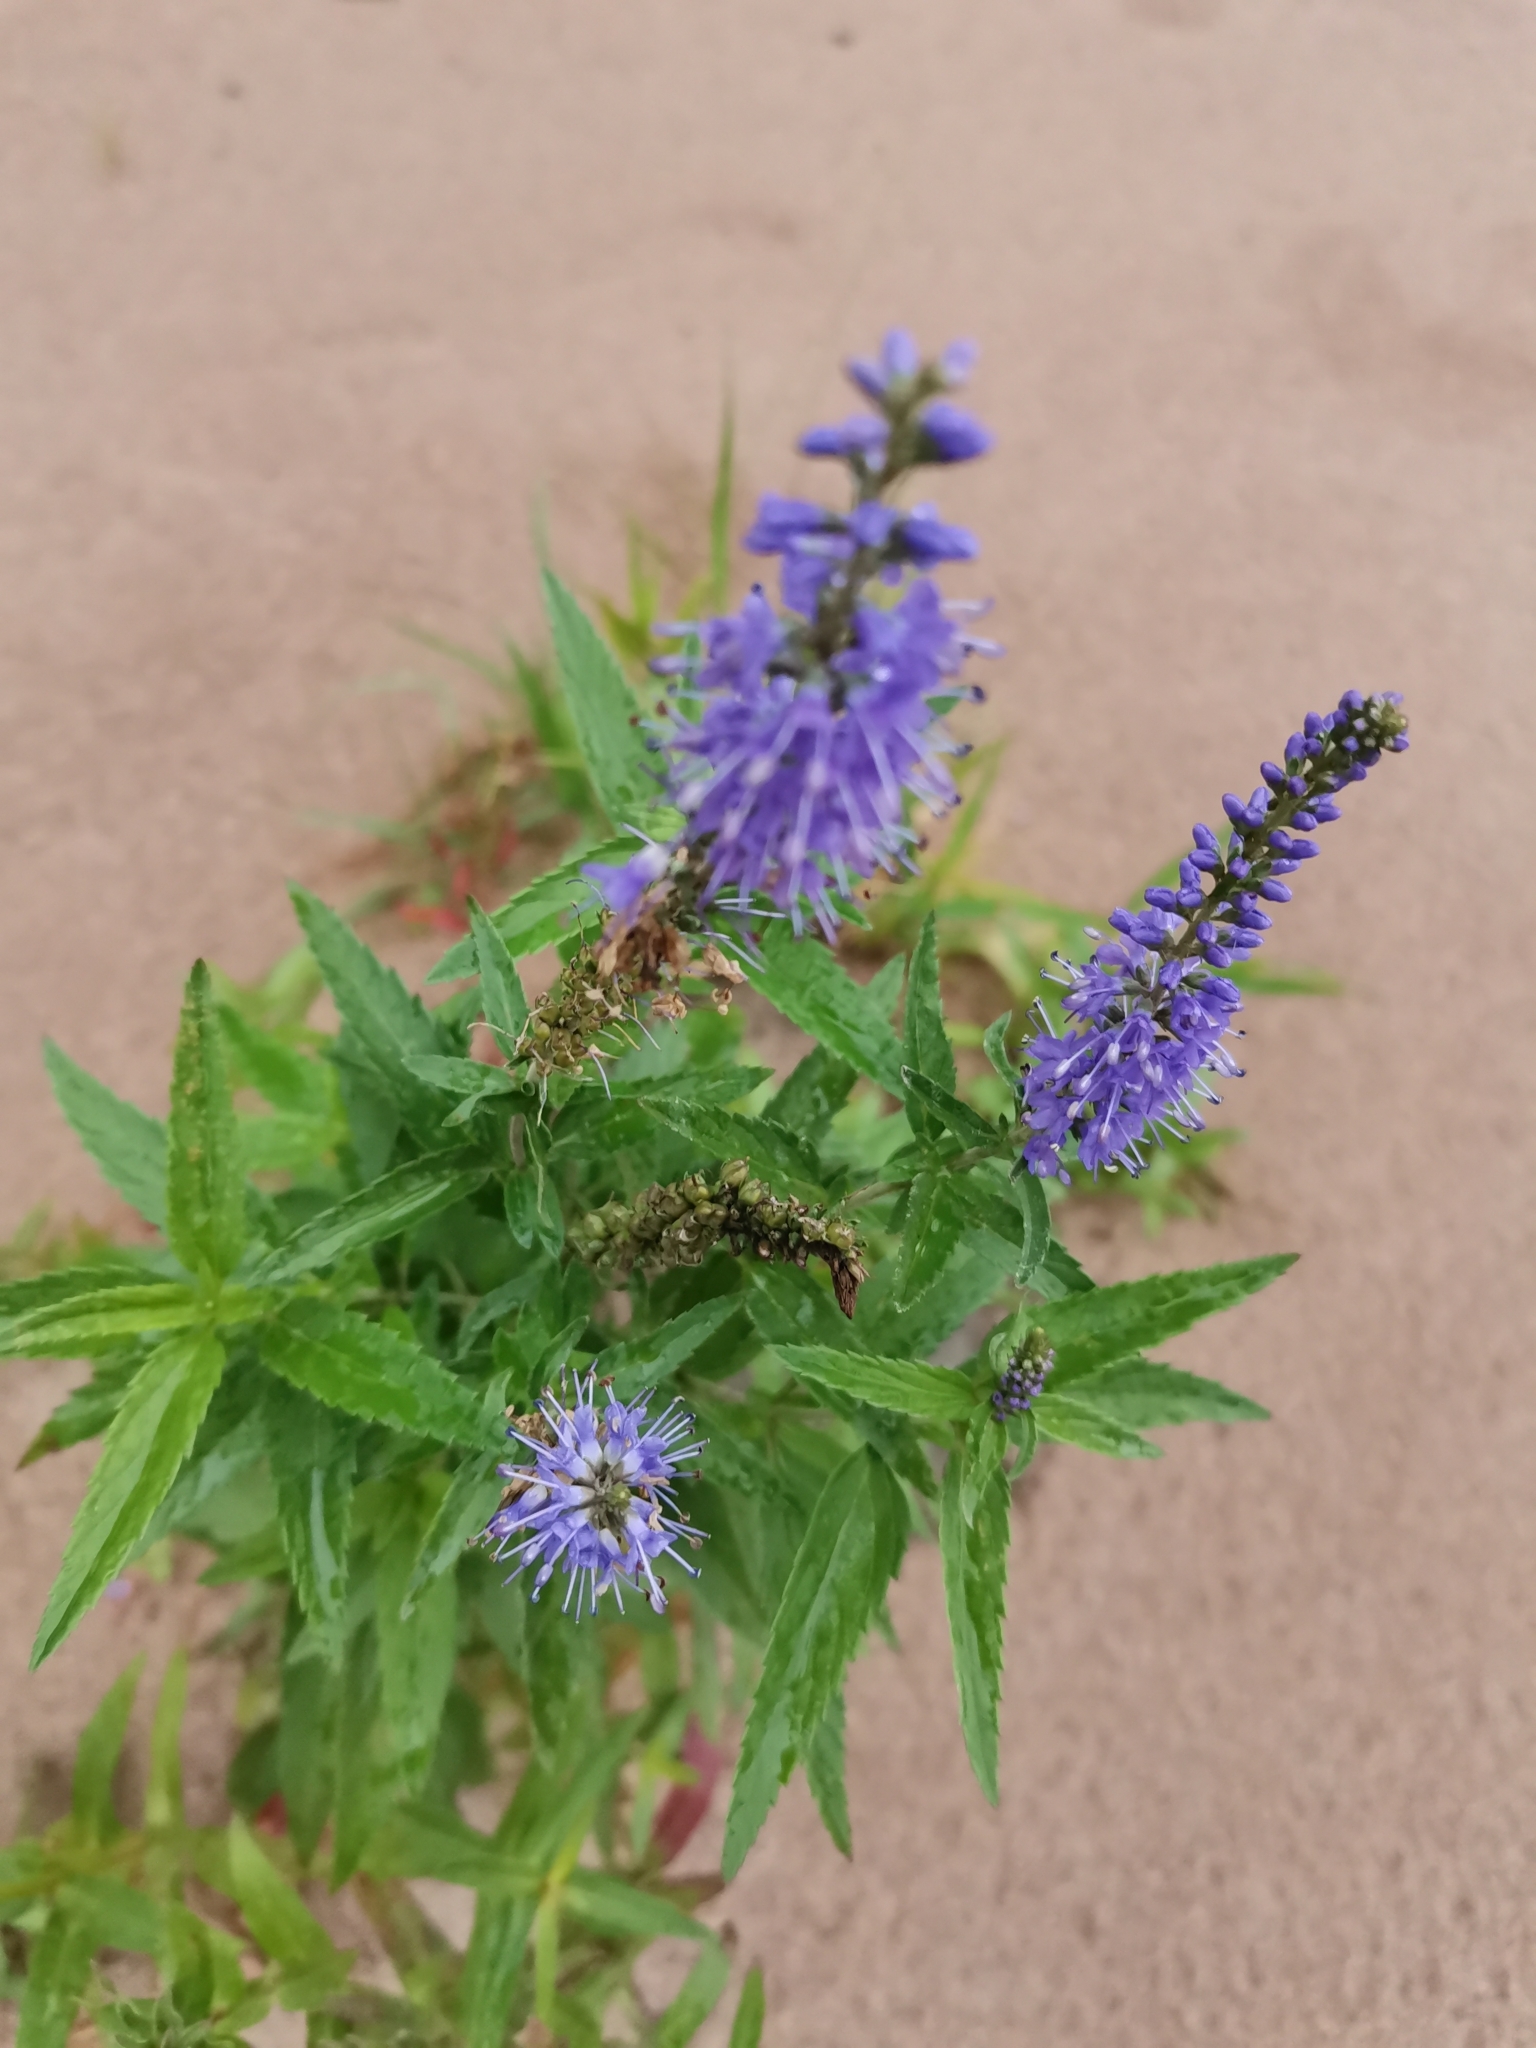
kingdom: Plantae
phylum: Tracheophyta
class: Magnoliopsida
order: Lamiales
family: Plantaginaceae
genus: Veronica
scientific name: Veronica longifolia
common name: Garden speedwell
